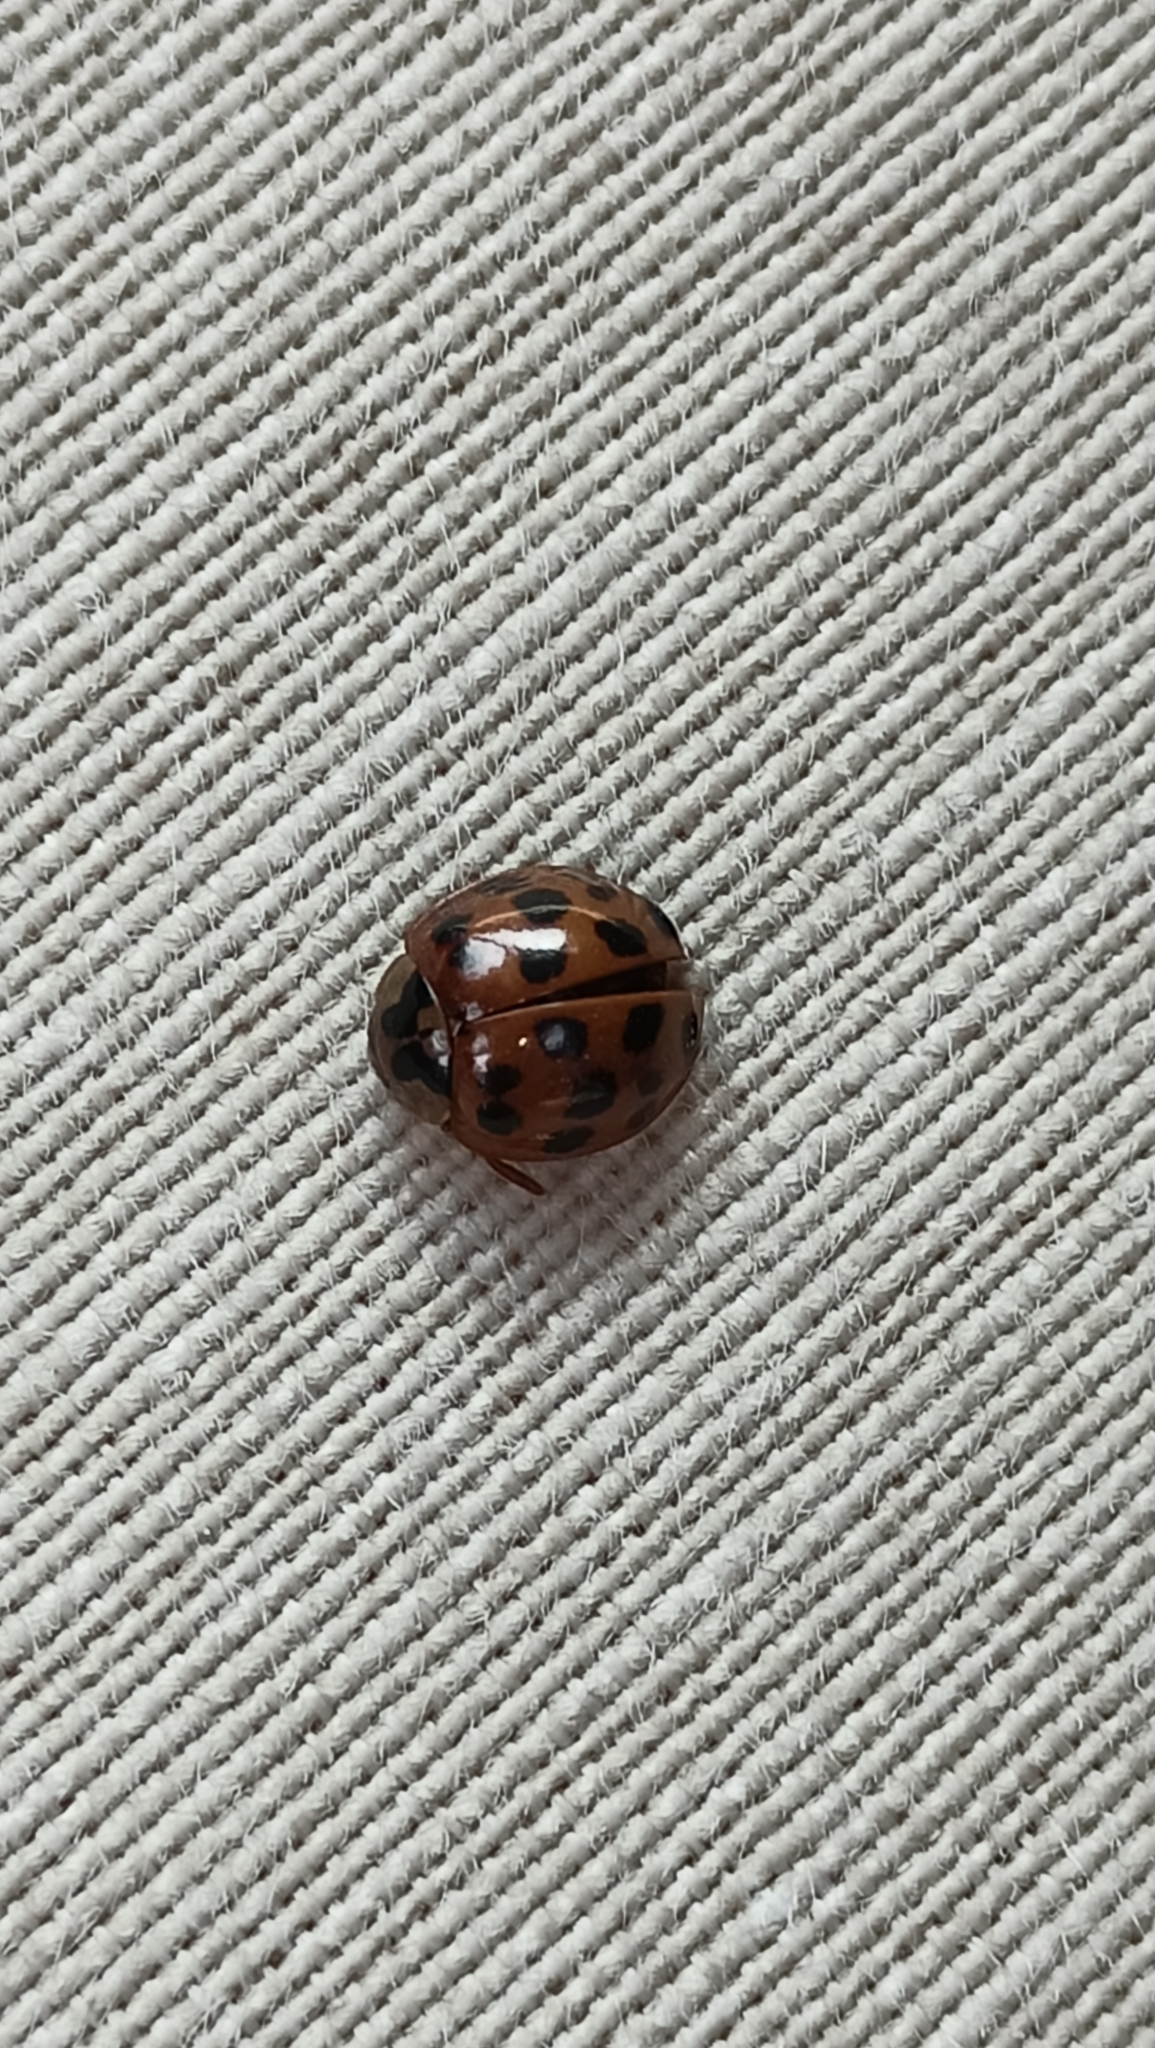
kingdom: Animalia
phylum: Arthropoda
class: Insecta
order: Coleoptera
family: Coccinellidae
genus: Harmonia
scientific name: Harmonia axyridis
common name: Harlequin ladybird
